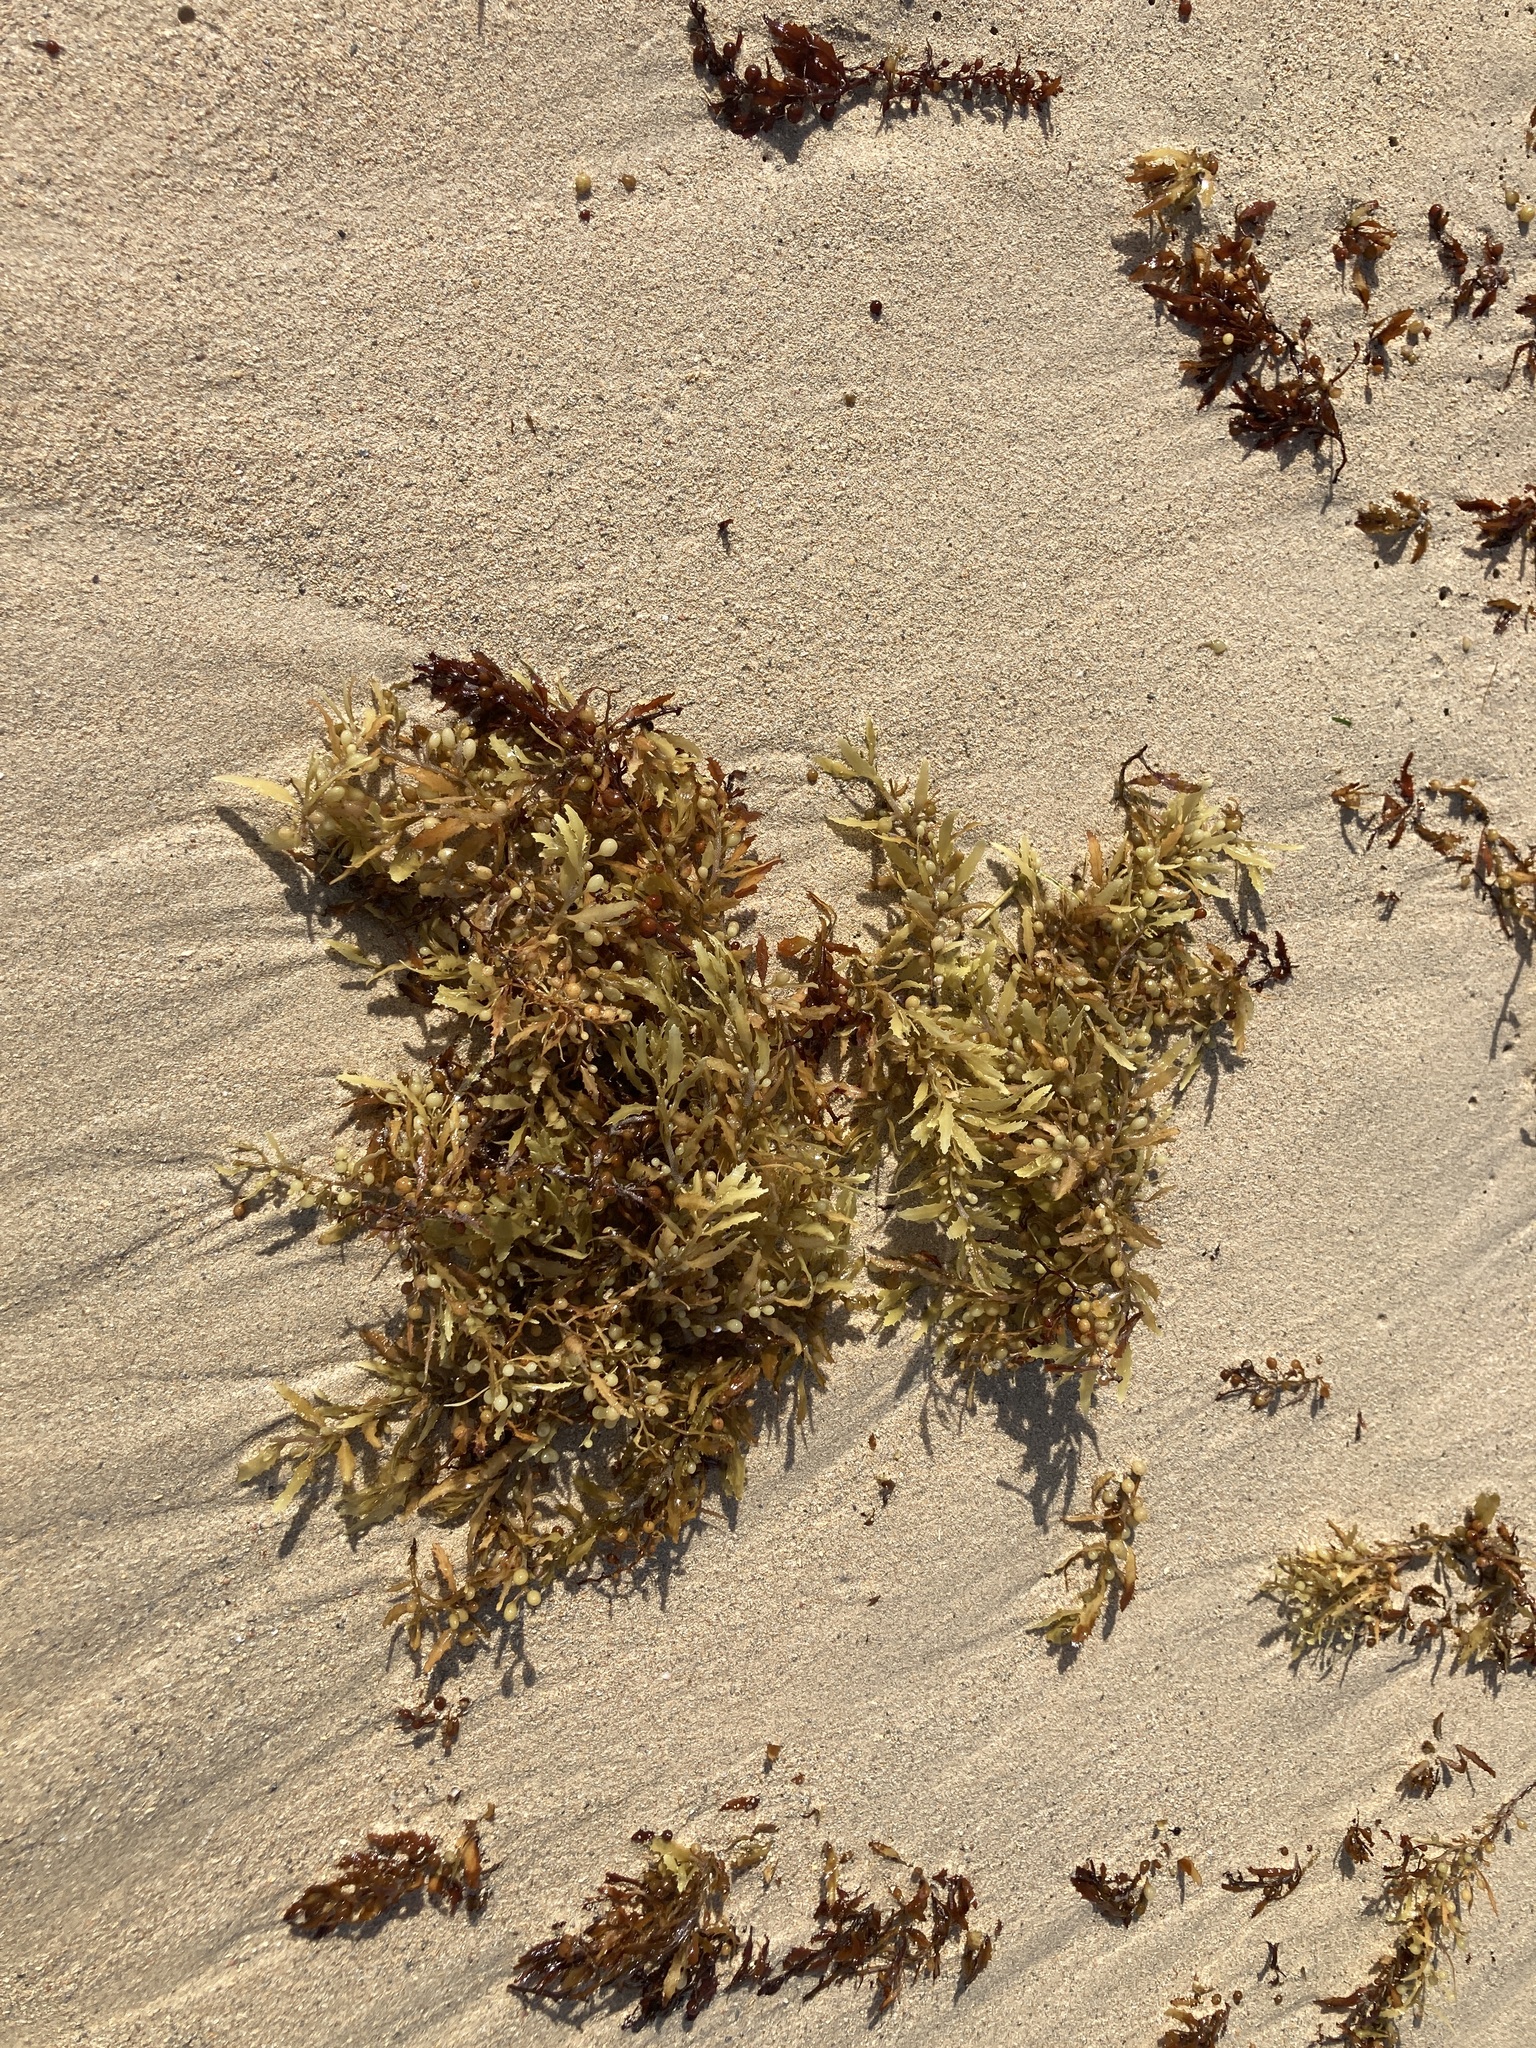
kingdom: Chromista
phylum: Ochrophyta
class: Phaeophyceae
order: Fucales
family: Sargassaceae
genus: Sargassum
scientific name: Sargassum fluitans
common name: Sargassum seaweed
